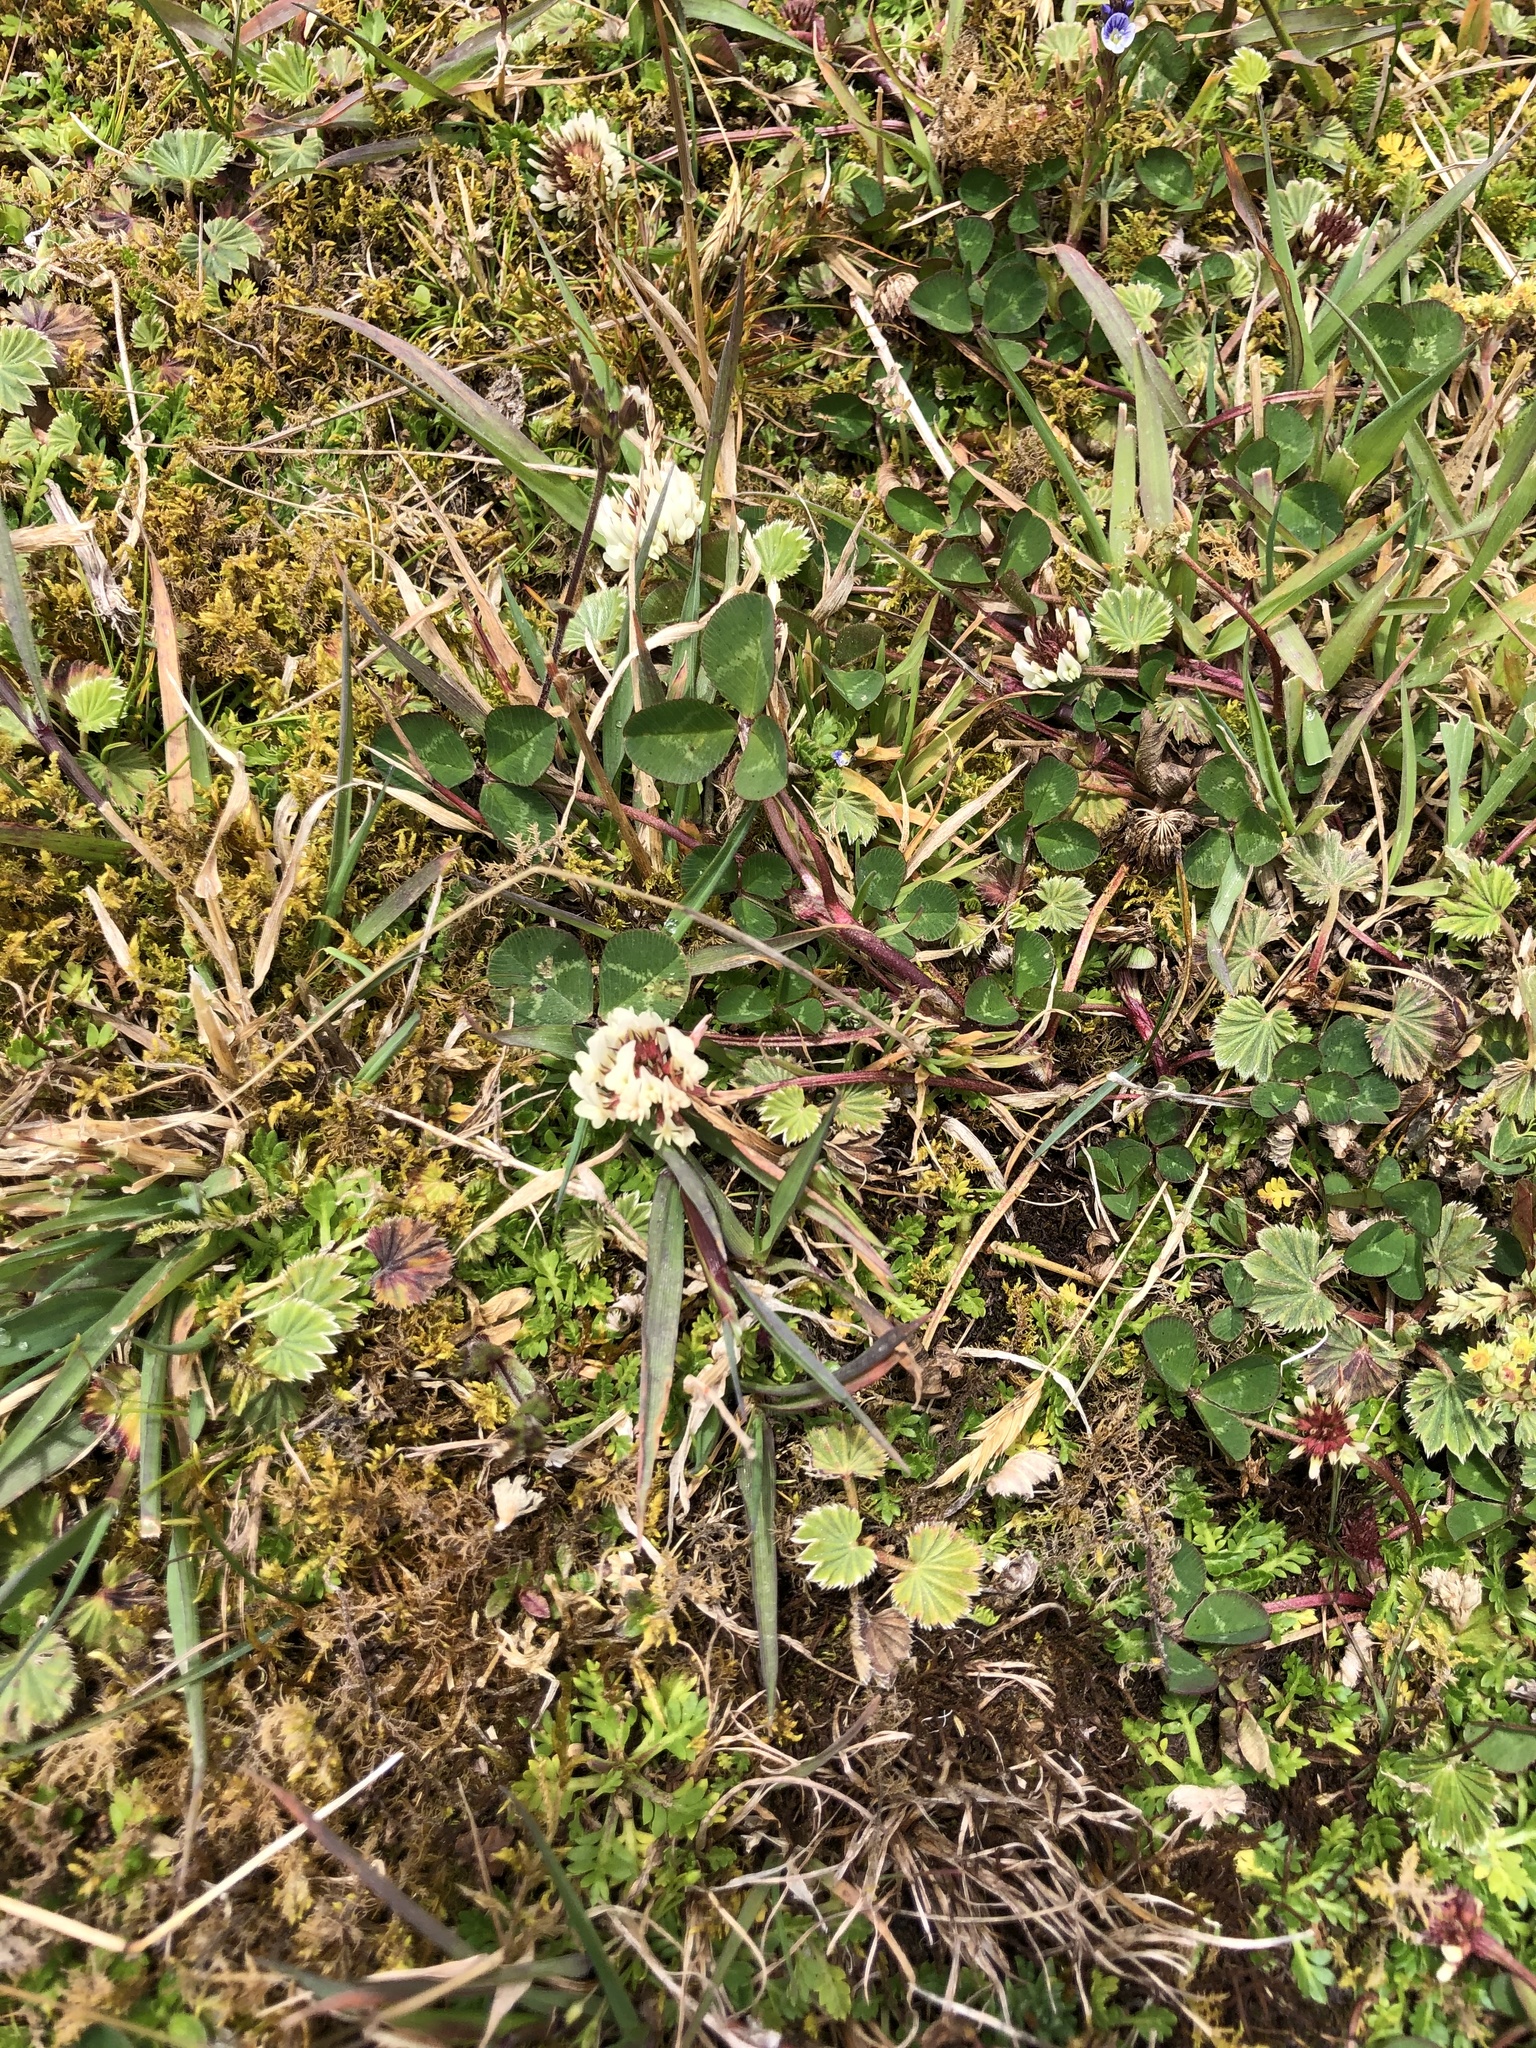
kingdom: Plantae
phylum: Tracheophyta
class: Magnoliopsida
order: Fabales
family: Fabaceae
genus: Trifolium
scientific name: Trifolium repens
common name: White clover
